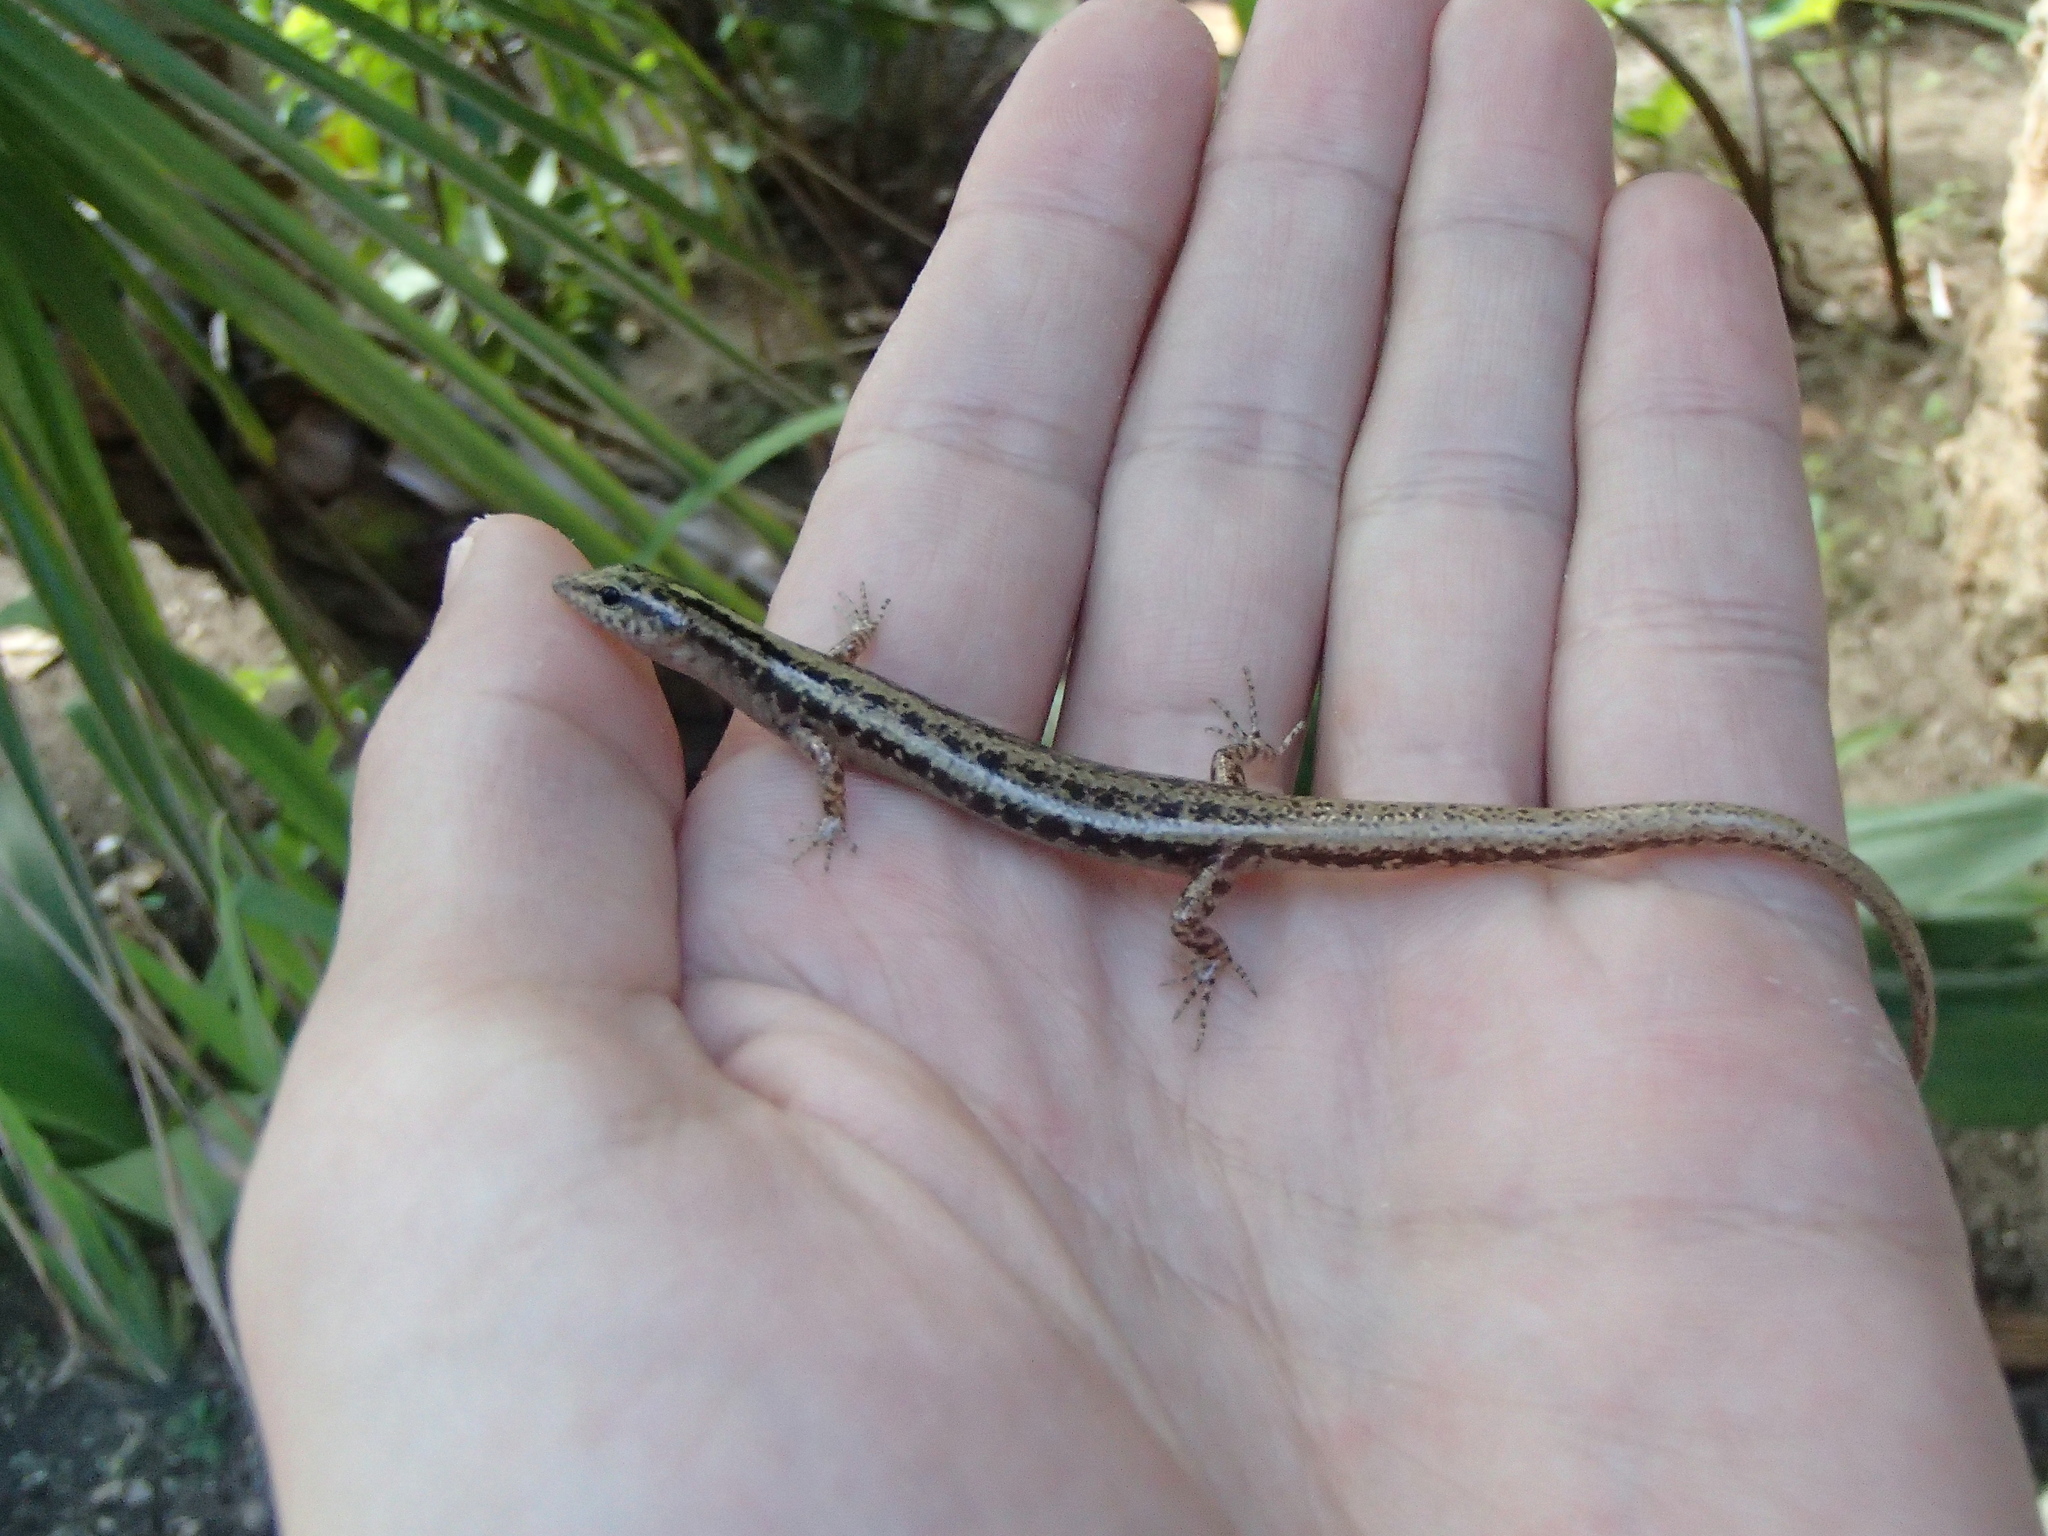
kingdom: Animalia
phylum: Chordata
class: Squamata
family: Scincidae
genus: Ornithuroscincus
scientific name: Ornithuroscincus noctua
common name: Moth skink
